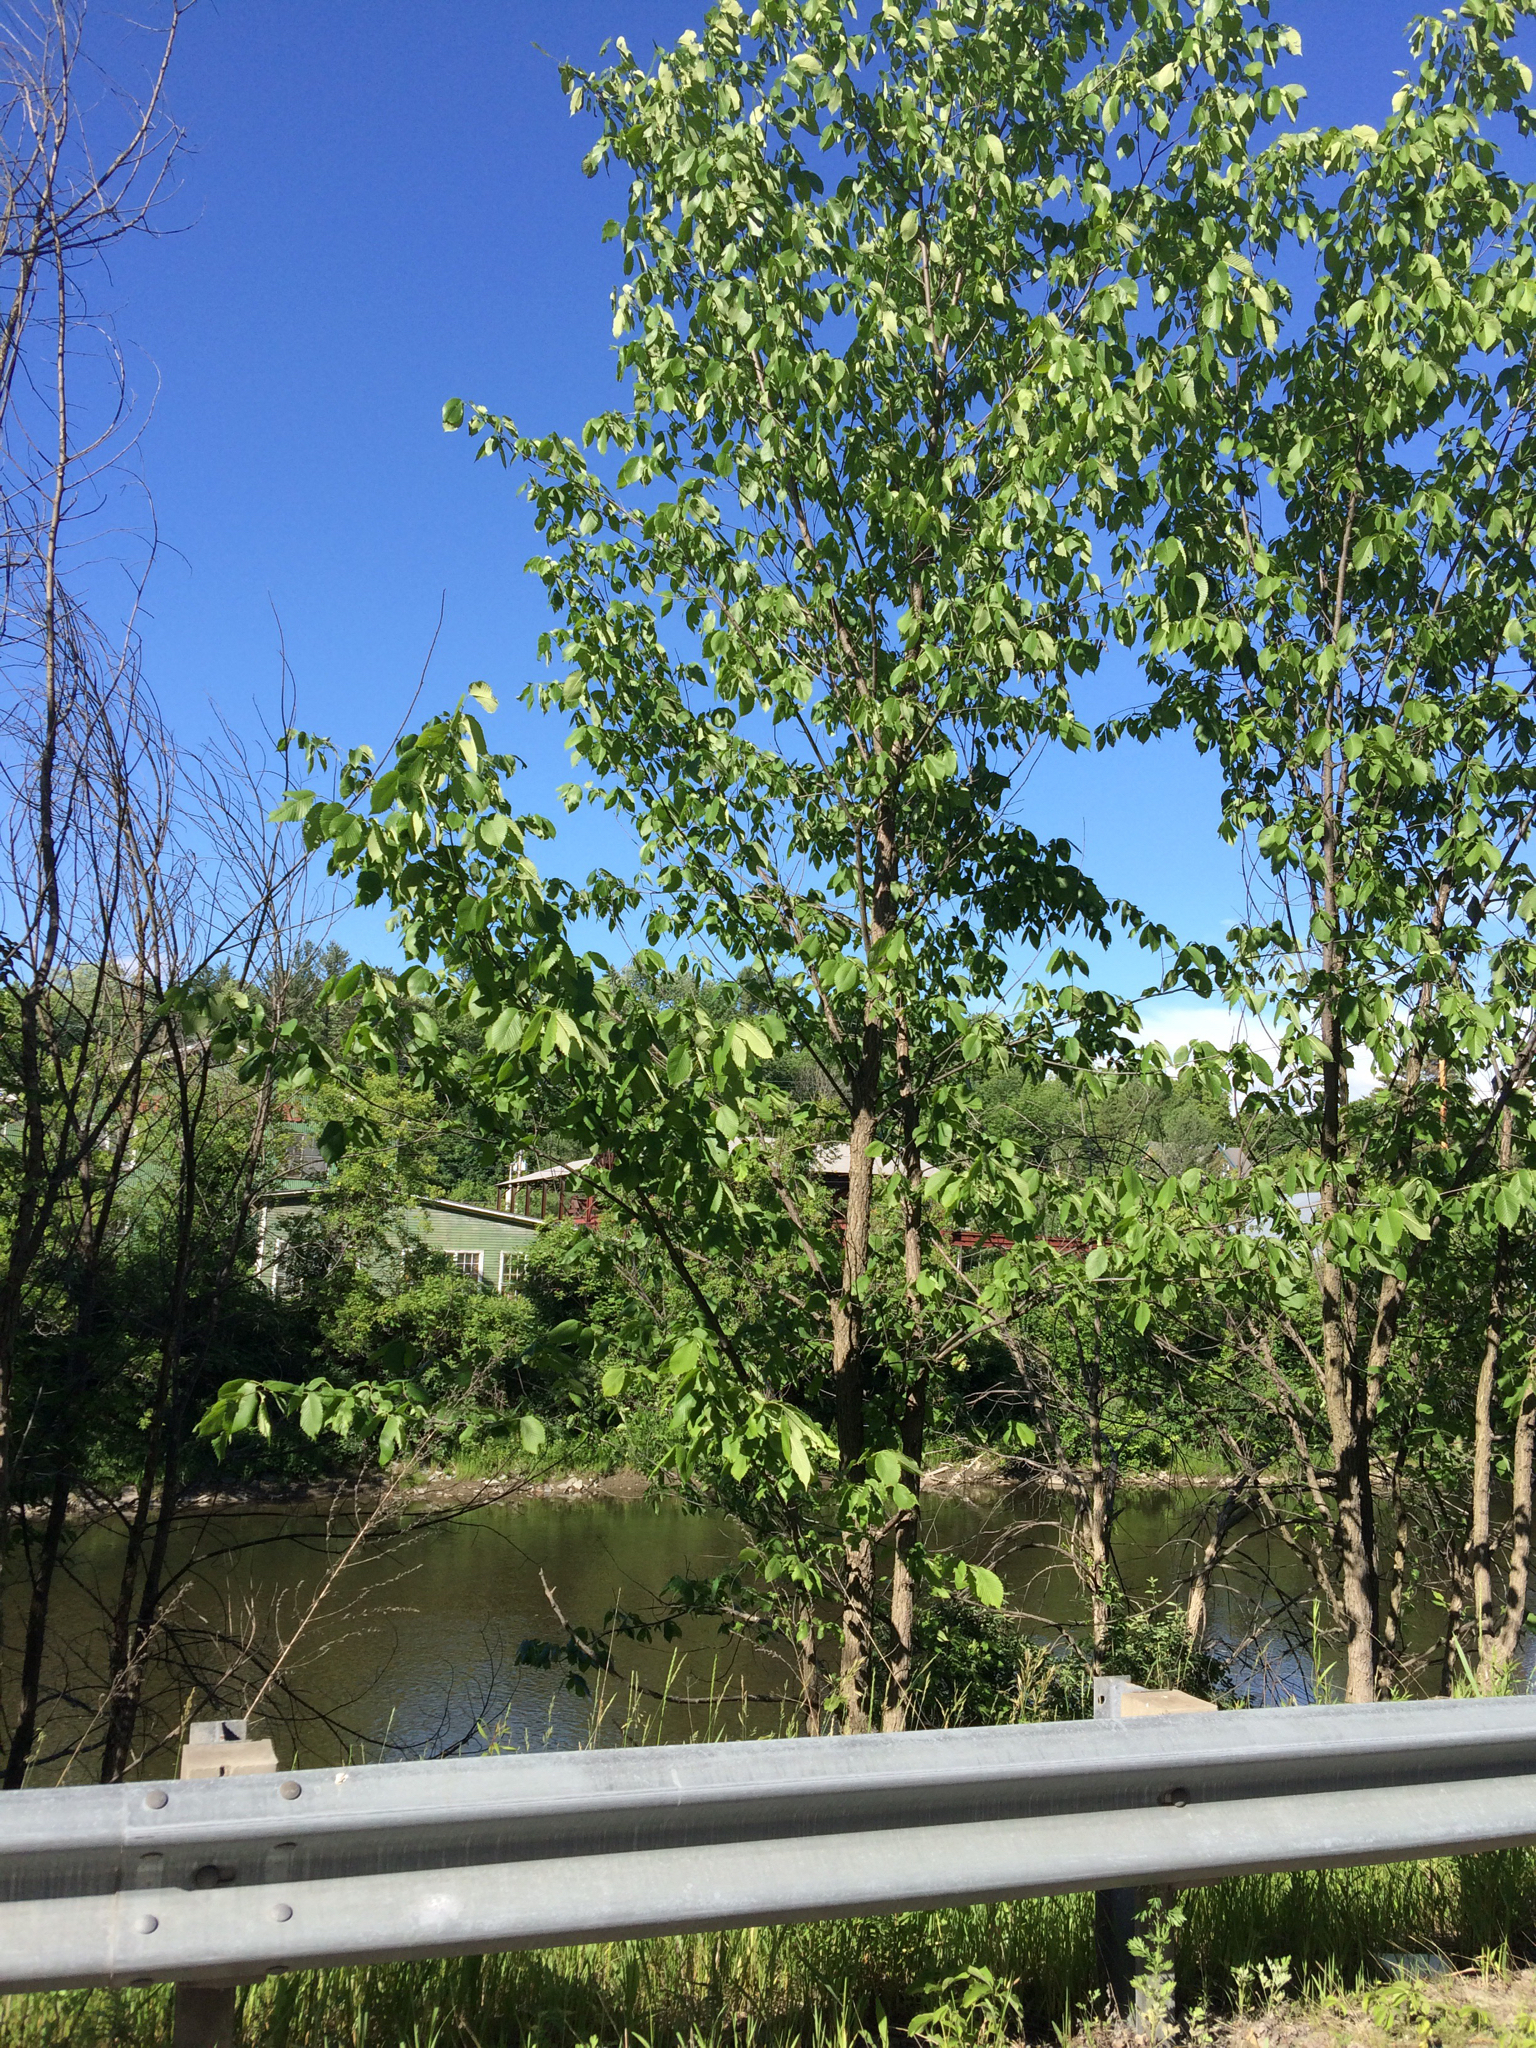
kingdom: Plantae
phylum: Tracheophyta
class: Magnoliopsida
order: Rosales
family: Ulmaceae
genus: Ulmus
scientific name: Ulmus americana
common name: American elm
